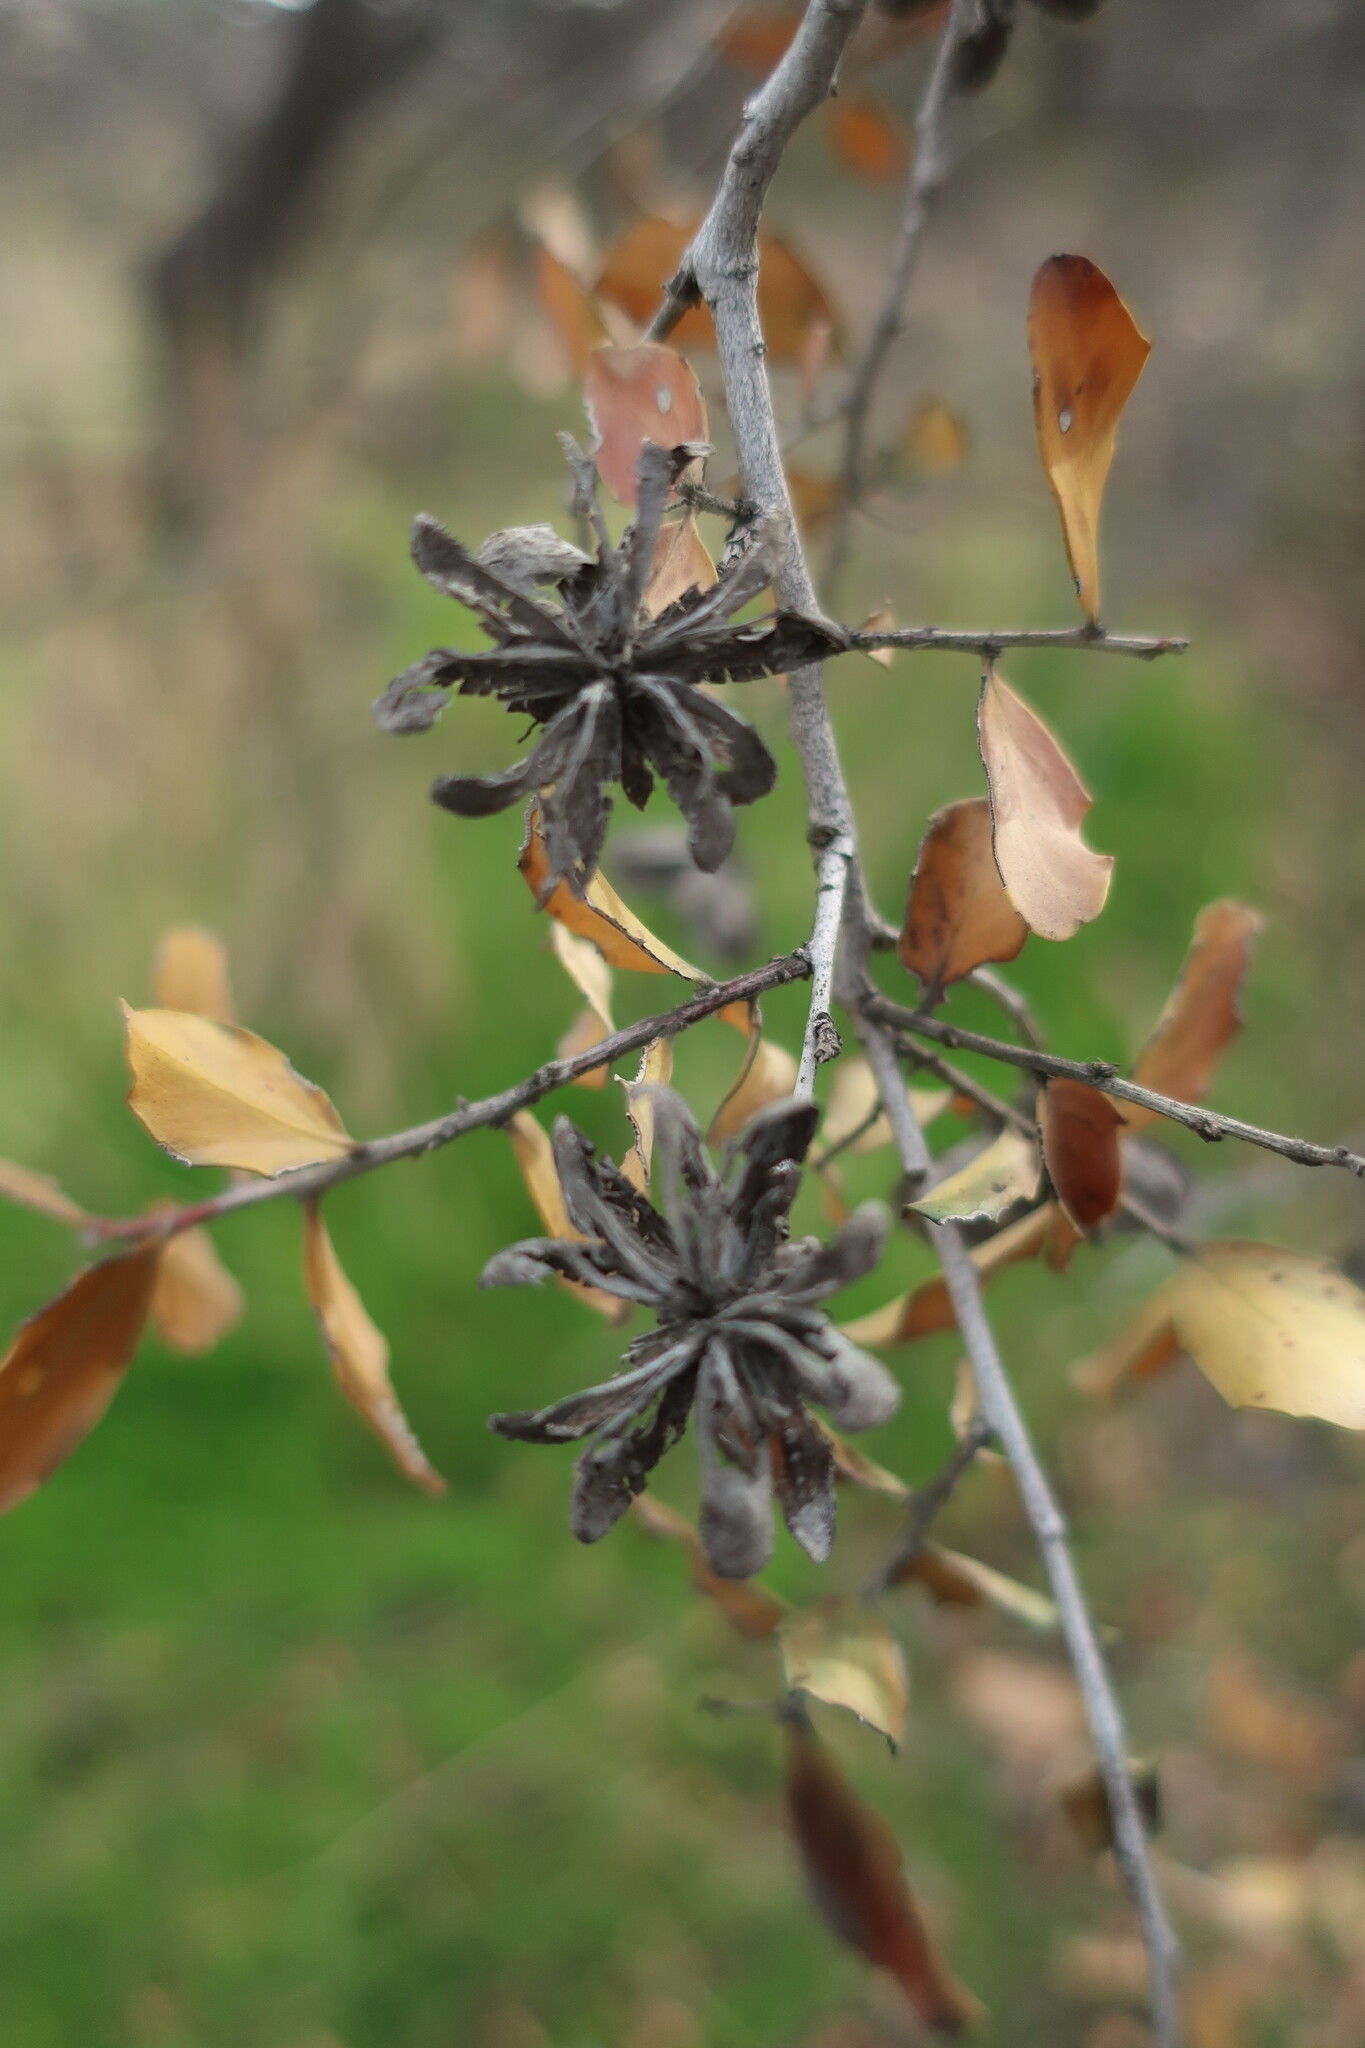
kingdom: Plantae
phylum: Tracheophyta
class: Magnoliopsida
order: Fabales
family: Quillajaceae
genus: Quillaja
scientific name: Quillaja saponaria
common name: Murillo's-bark
